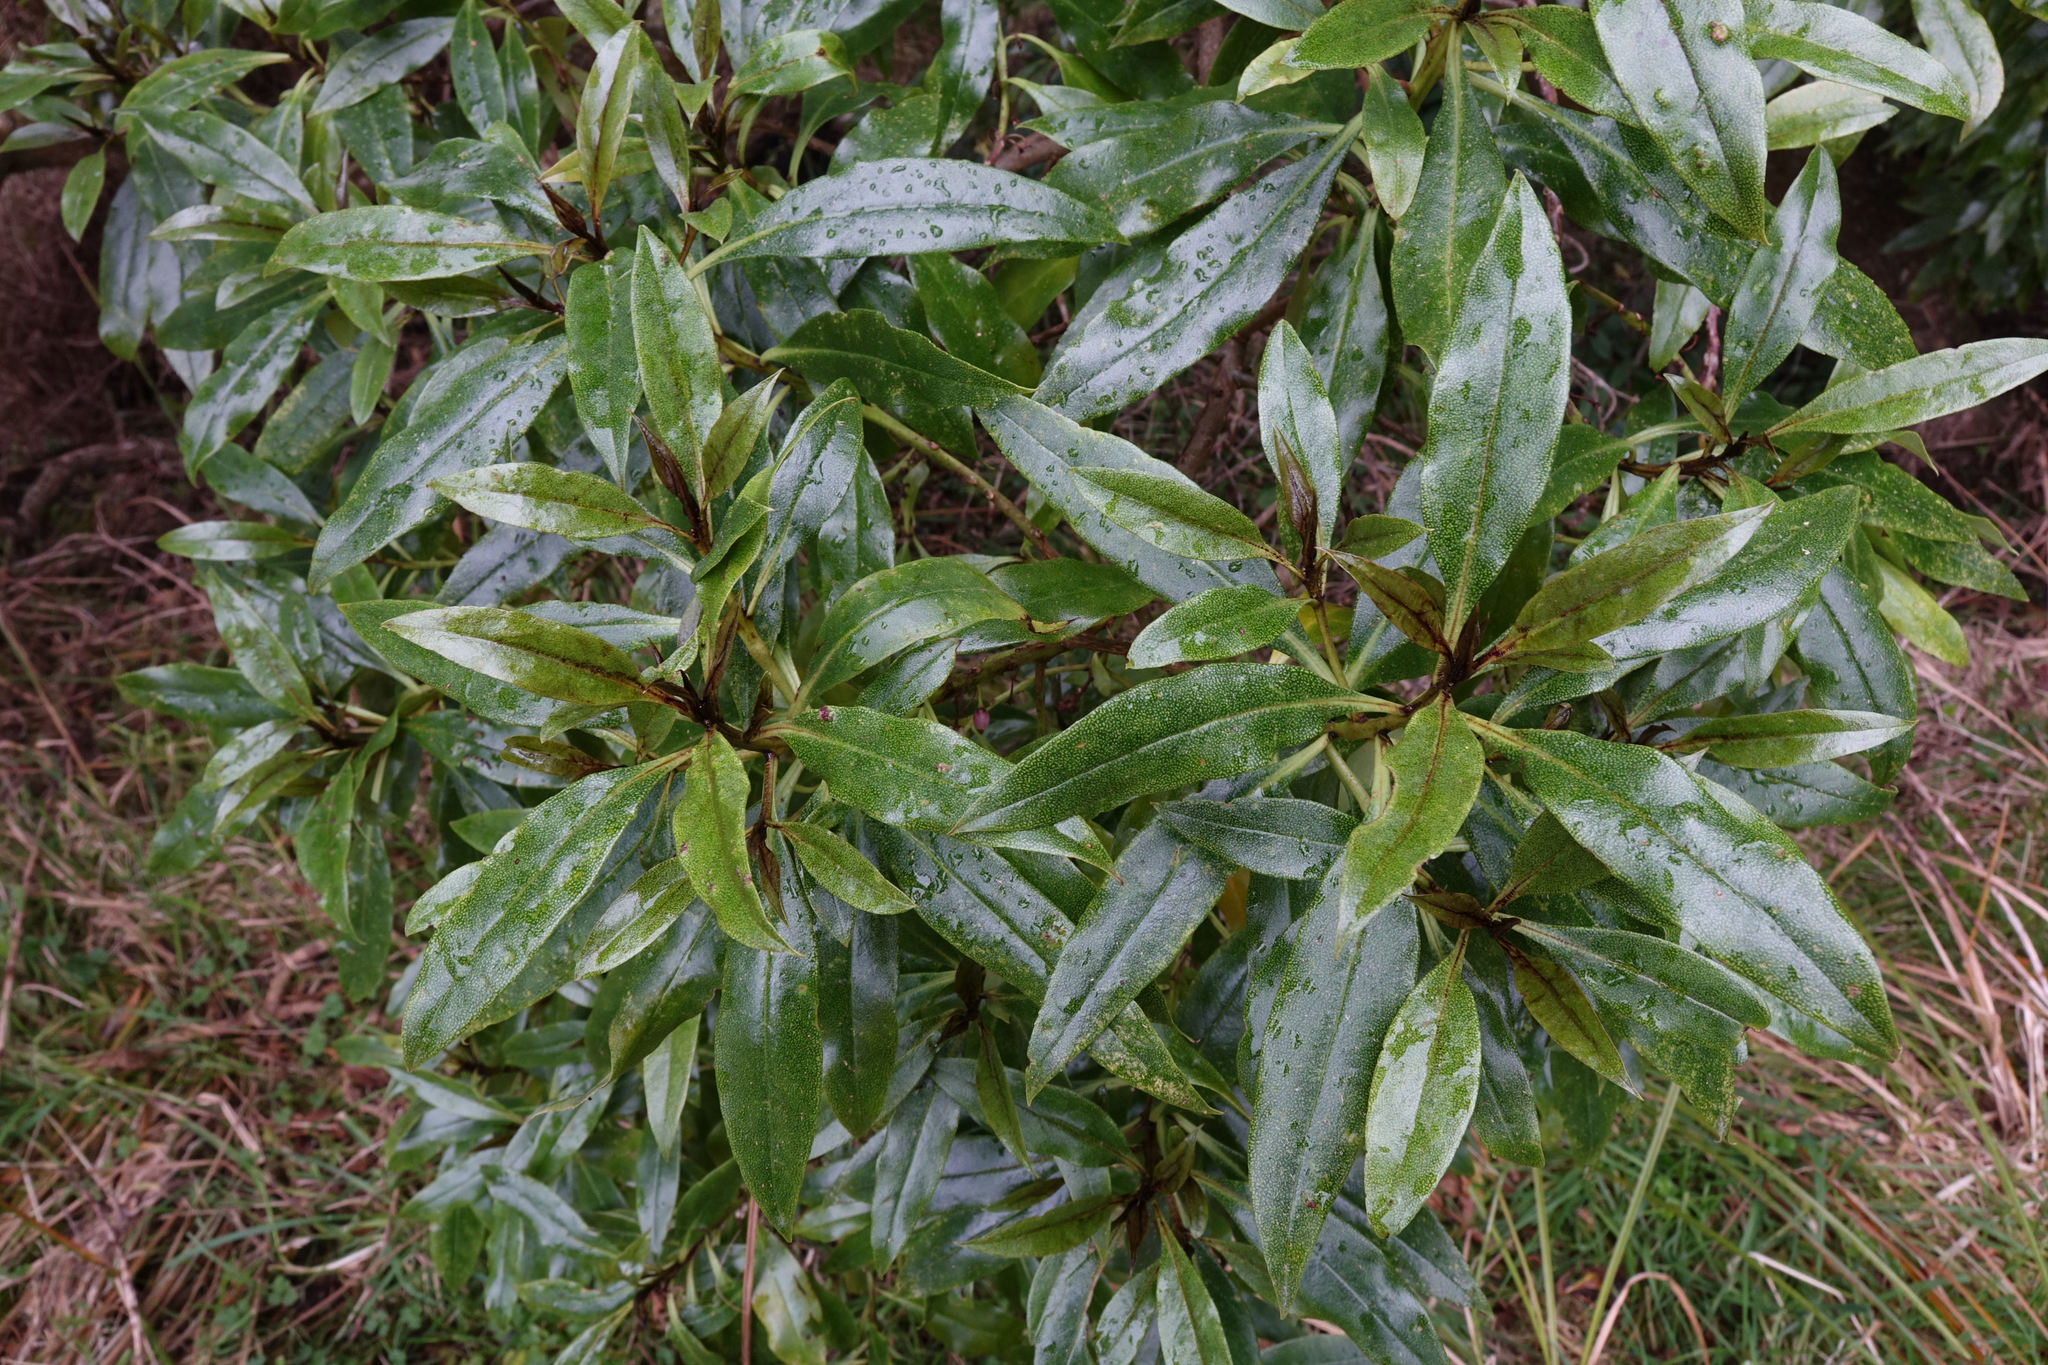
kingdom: Plantae
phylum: Tracheophyta
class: Magnoliopsida
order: Lamiales
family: Scrophulariaceae
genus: Myoporum
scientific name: Myoporum laetum
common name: Ngaio tree
